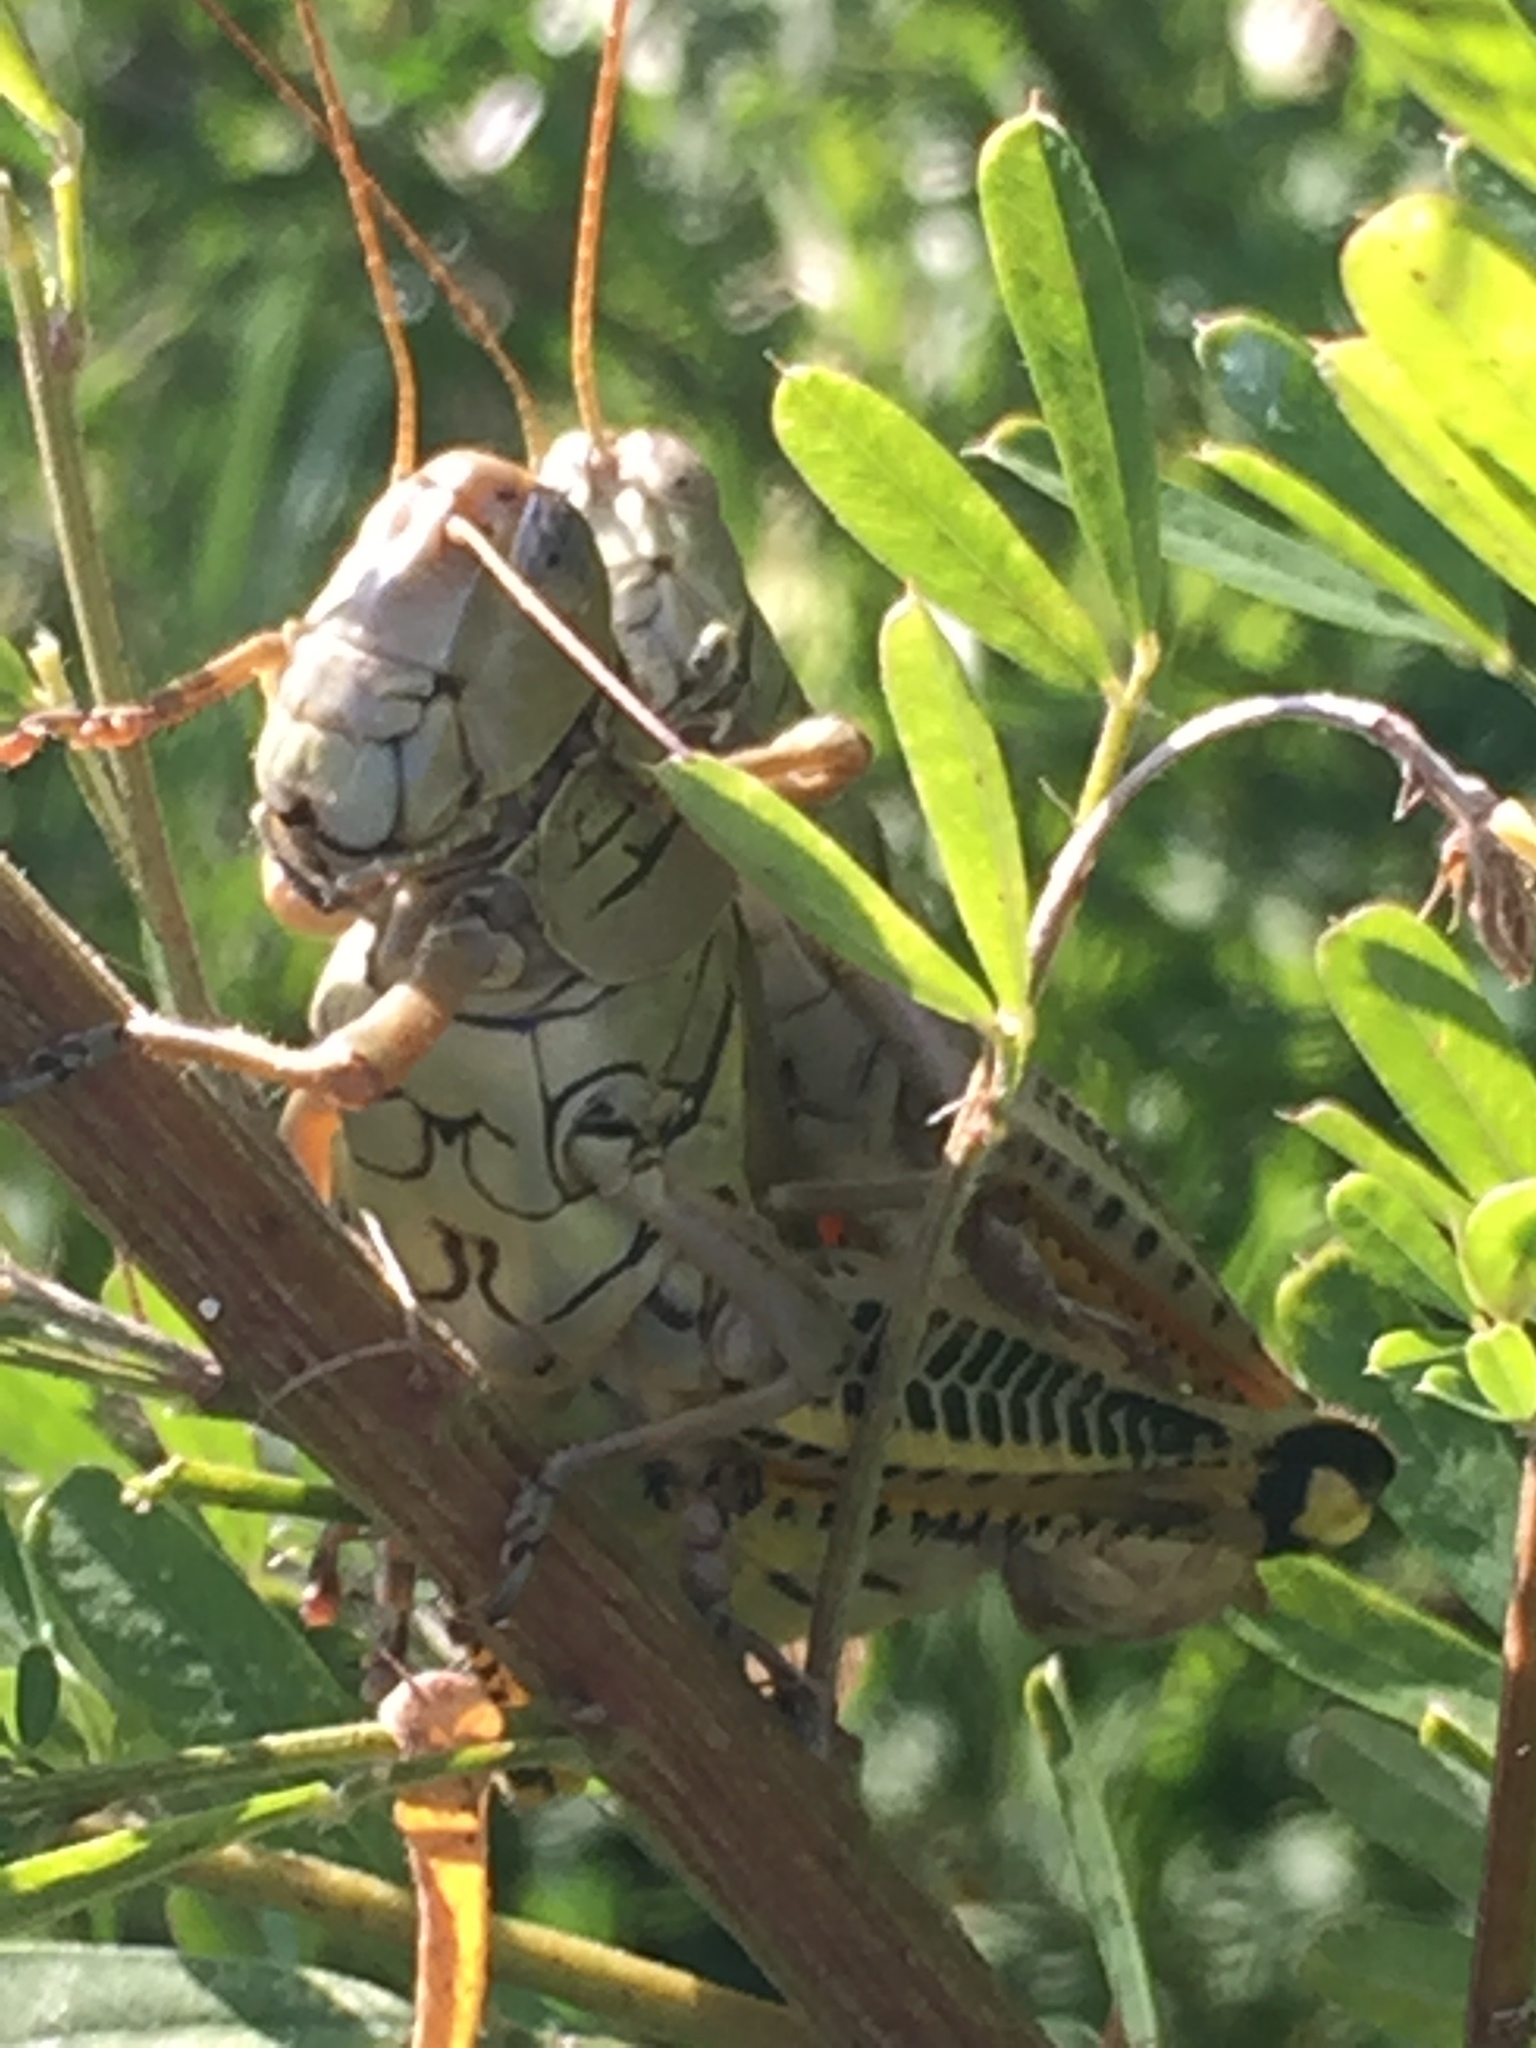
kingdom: Animalia
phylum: Arthropoda
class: Insecta
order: Orthoptera
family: Acrididae
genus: Melanoplus
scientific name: Melanoplus differentialis
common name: Differential grasshopper
